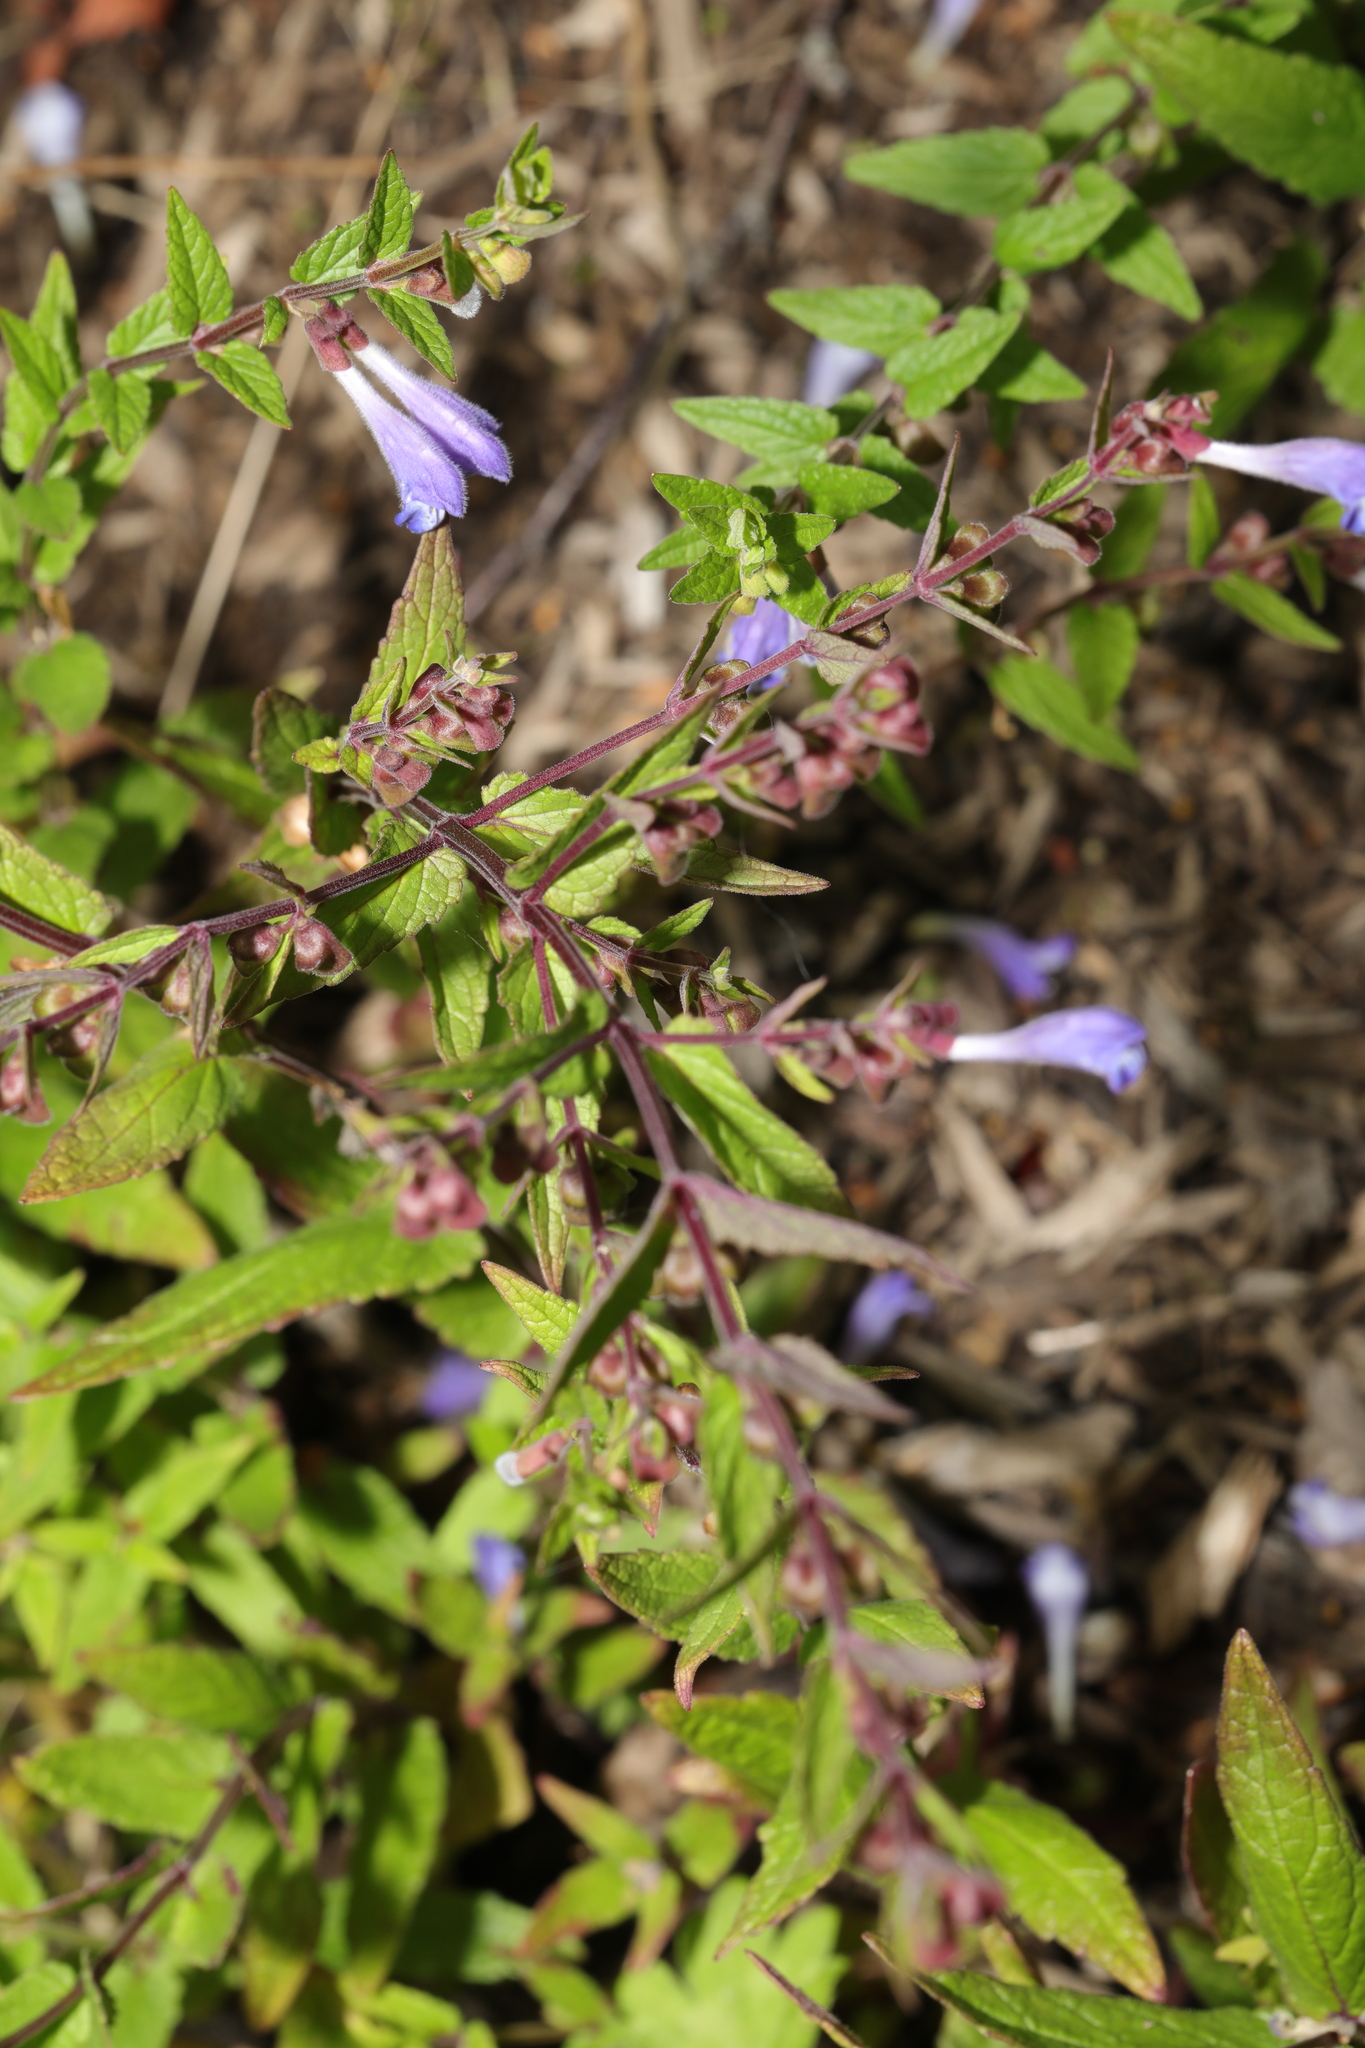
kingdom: Plantae
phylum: Tracheophyta
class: Magnoliopsida
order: Lamiales
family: Lamiaceae
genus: Scutellaria
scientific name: Scutellaria galericulata
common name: Skullcap
